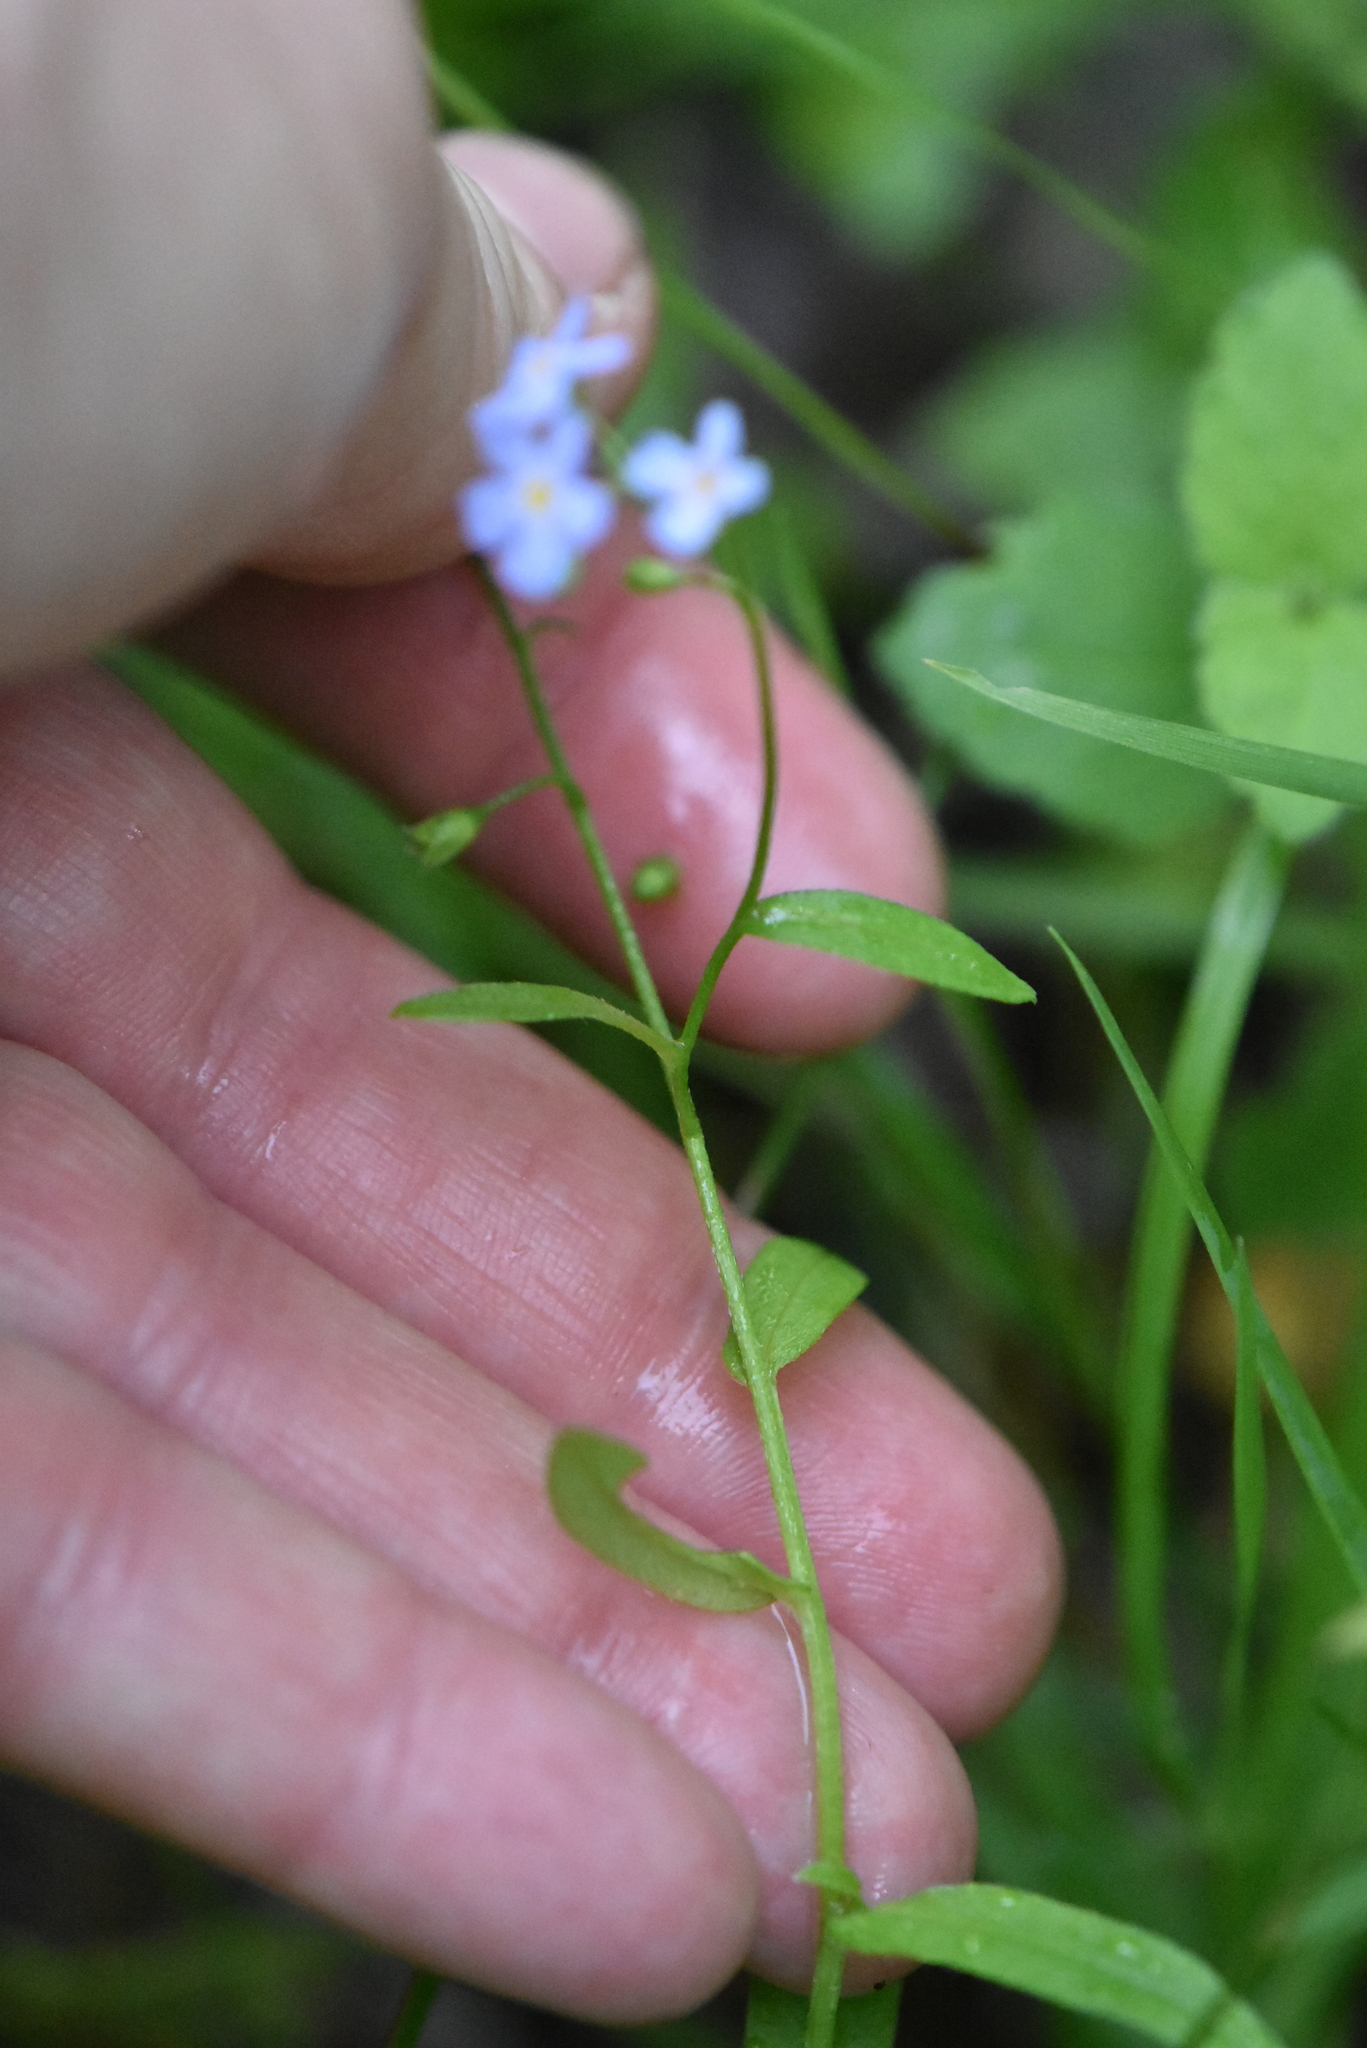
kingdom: Plantae
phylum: Tracheophyta
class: Magnoliopsida
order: Boraginales
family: Boraginaceae
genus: Myosotis
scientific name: Myosotis scorpioides
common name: Water forget-me-not
